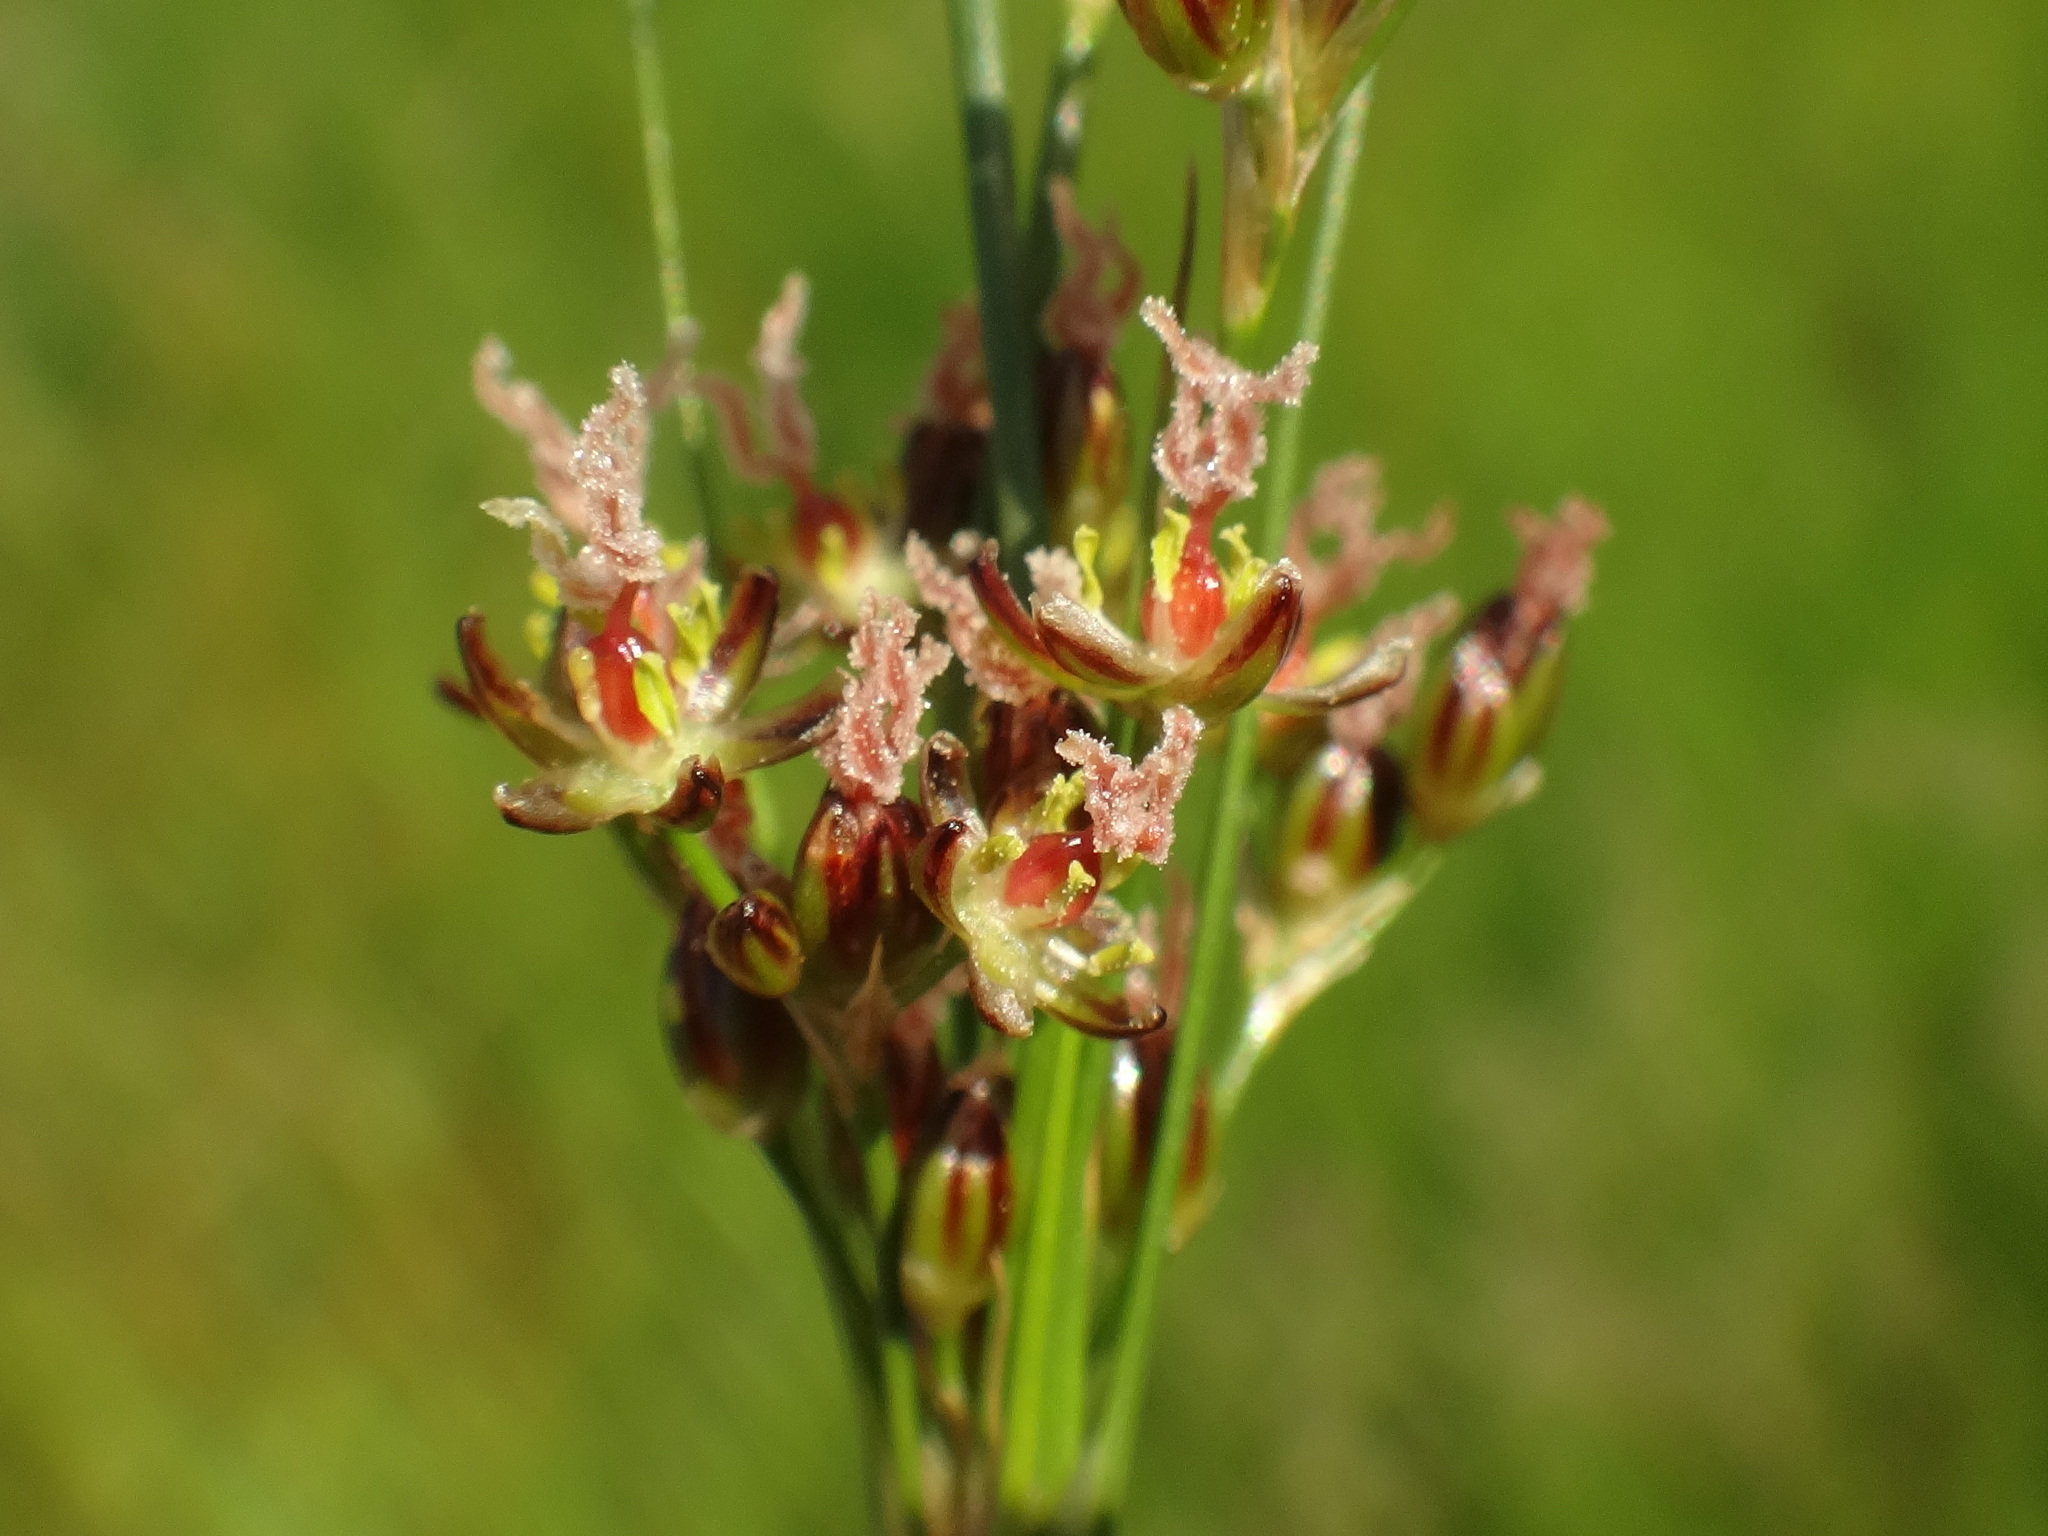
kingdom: Plantae
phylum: Tracheophyta
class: Liliopsida
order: Poales
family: Juncaceae
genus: Juncus
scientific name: Juncus compressus
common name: Round-fruited rush
